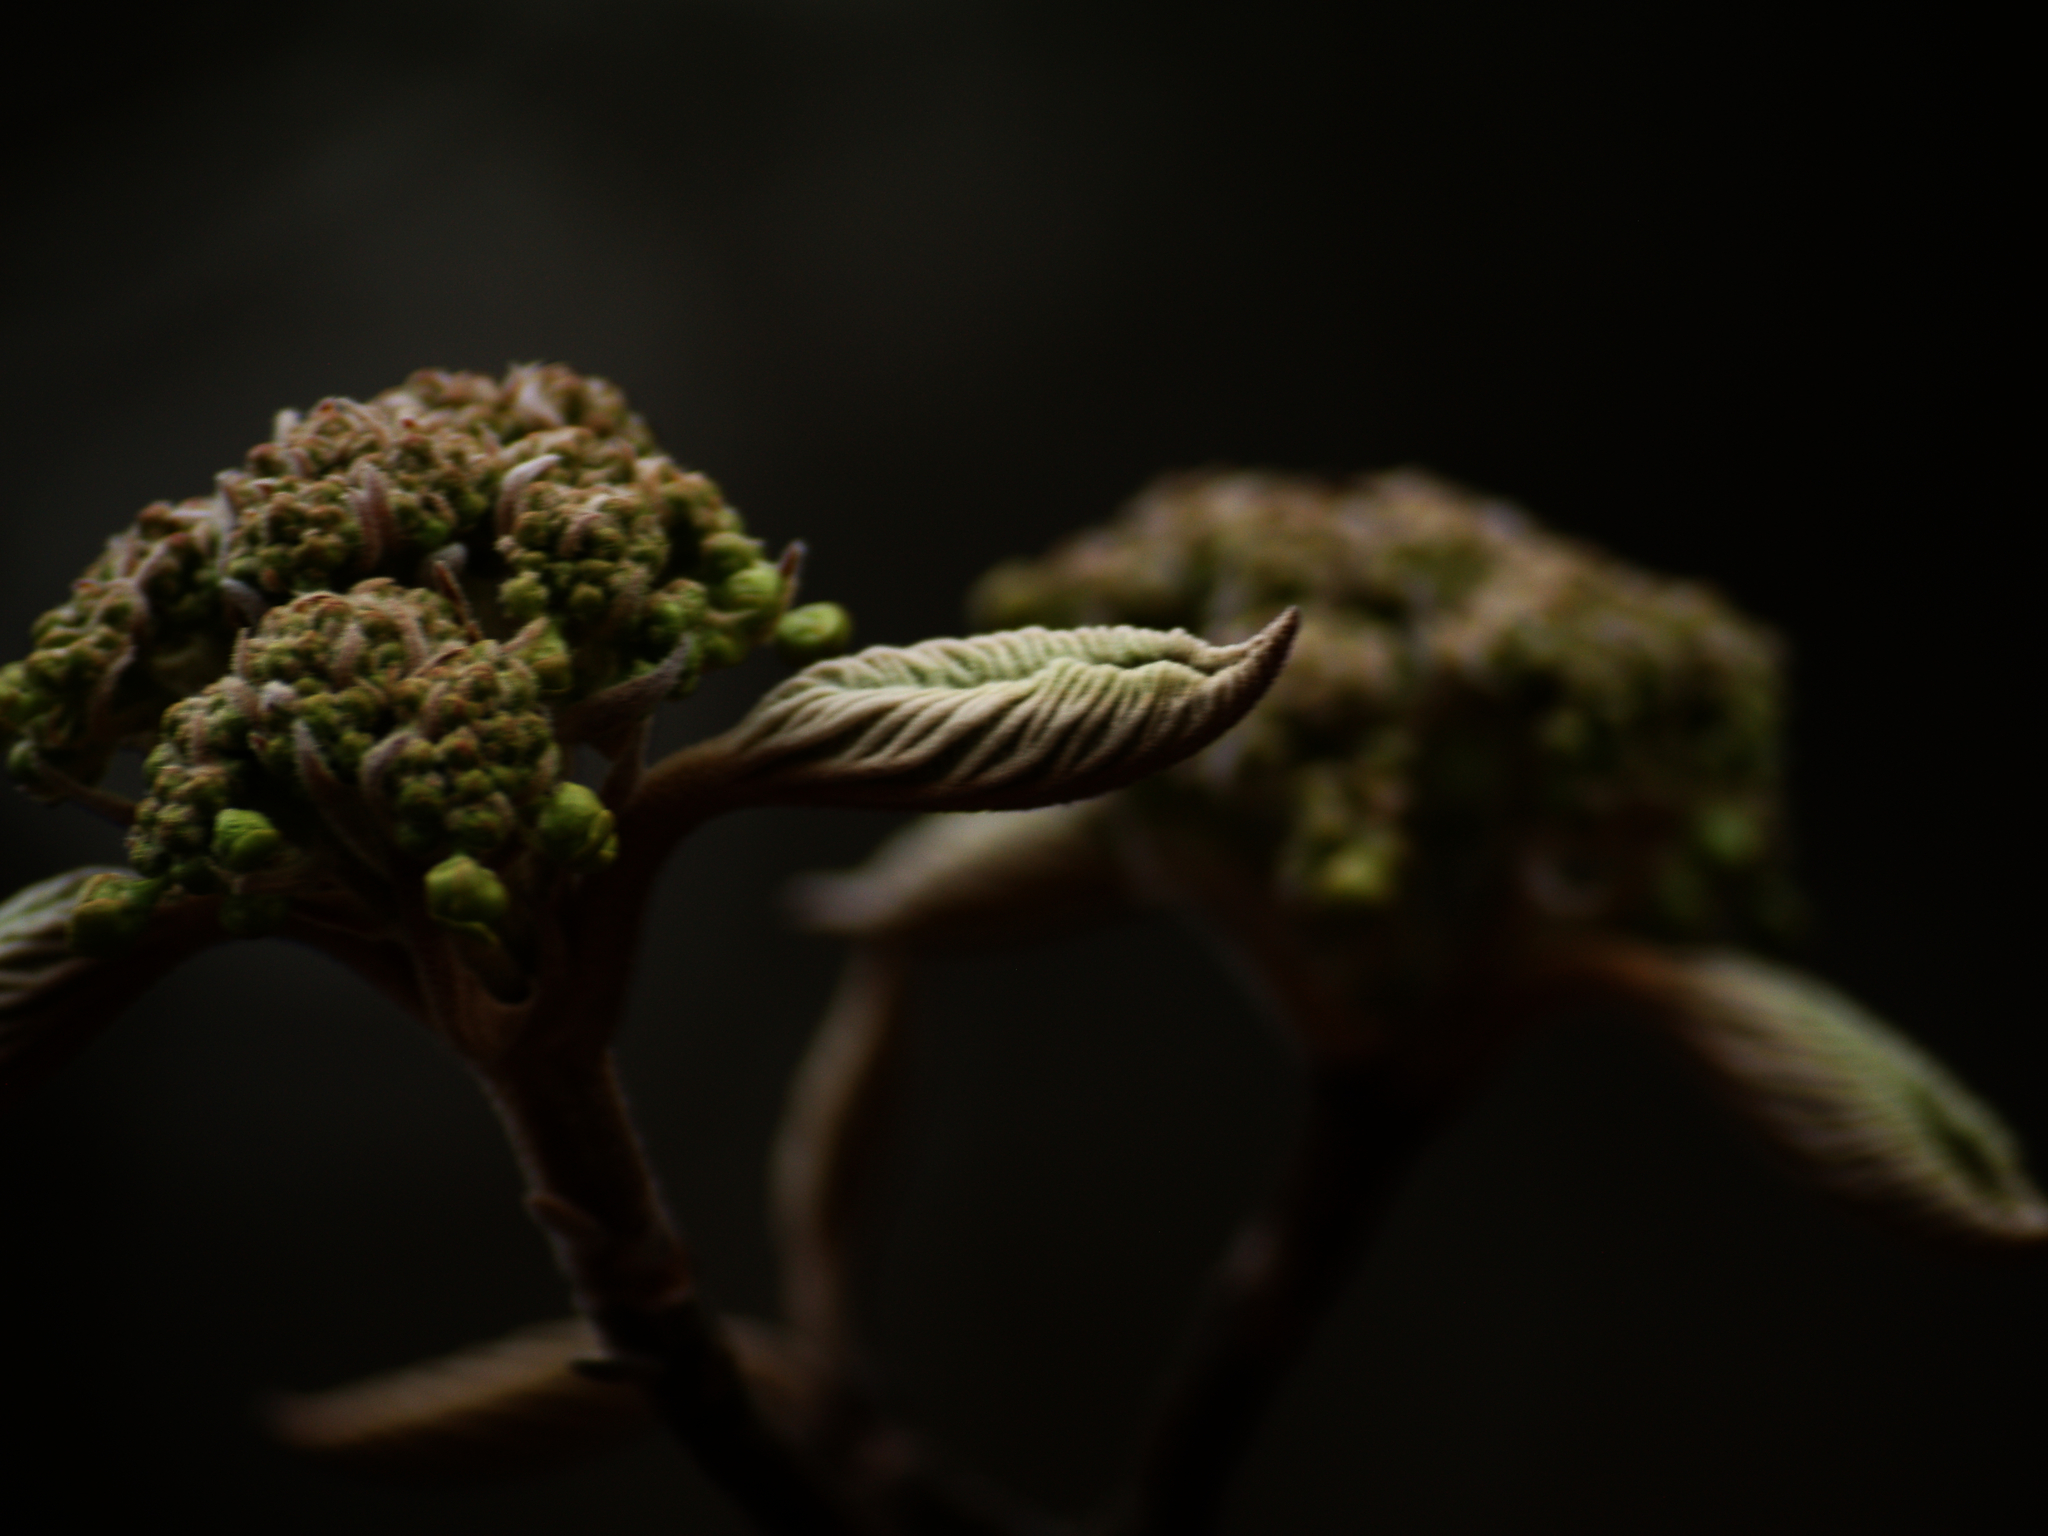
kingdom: Plantae
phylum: Tracheophyta
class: Magnoliopsida
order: Dipsacales
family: Viburnaceae
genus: Viburnum
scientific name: Viburnum lantanoides
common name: Hobblebush
